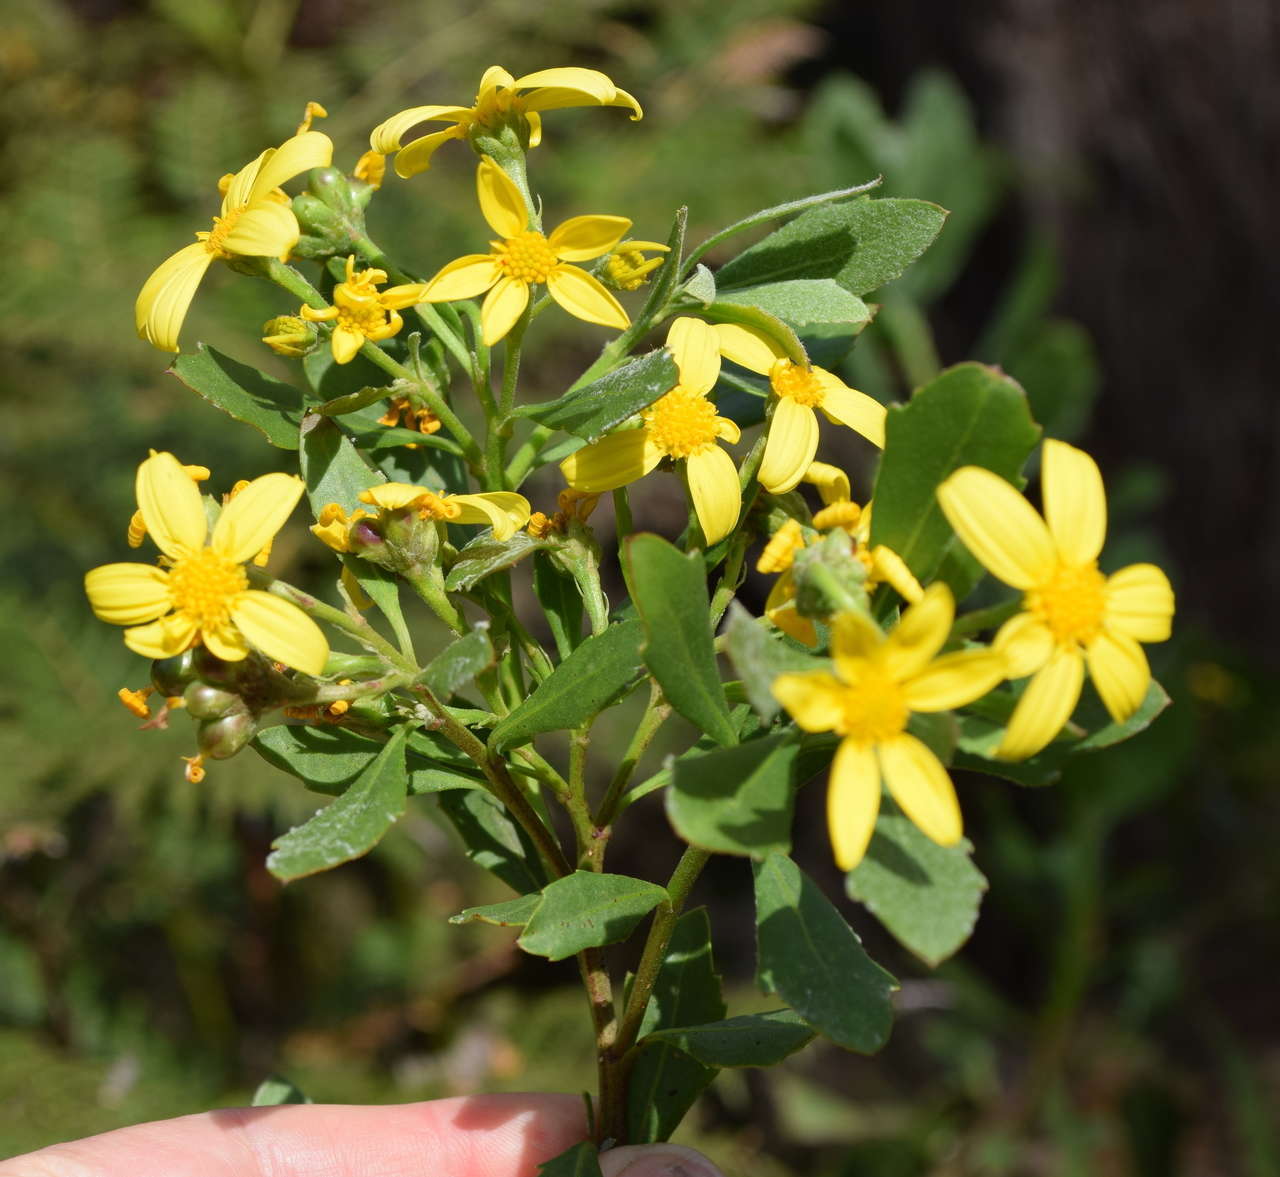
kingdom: Plantae
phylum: Tracheophyta
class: Magnoliopsida
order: Asterales
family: Asteraceae
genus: Osteospermum
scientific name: Osteospermum moniliferum
